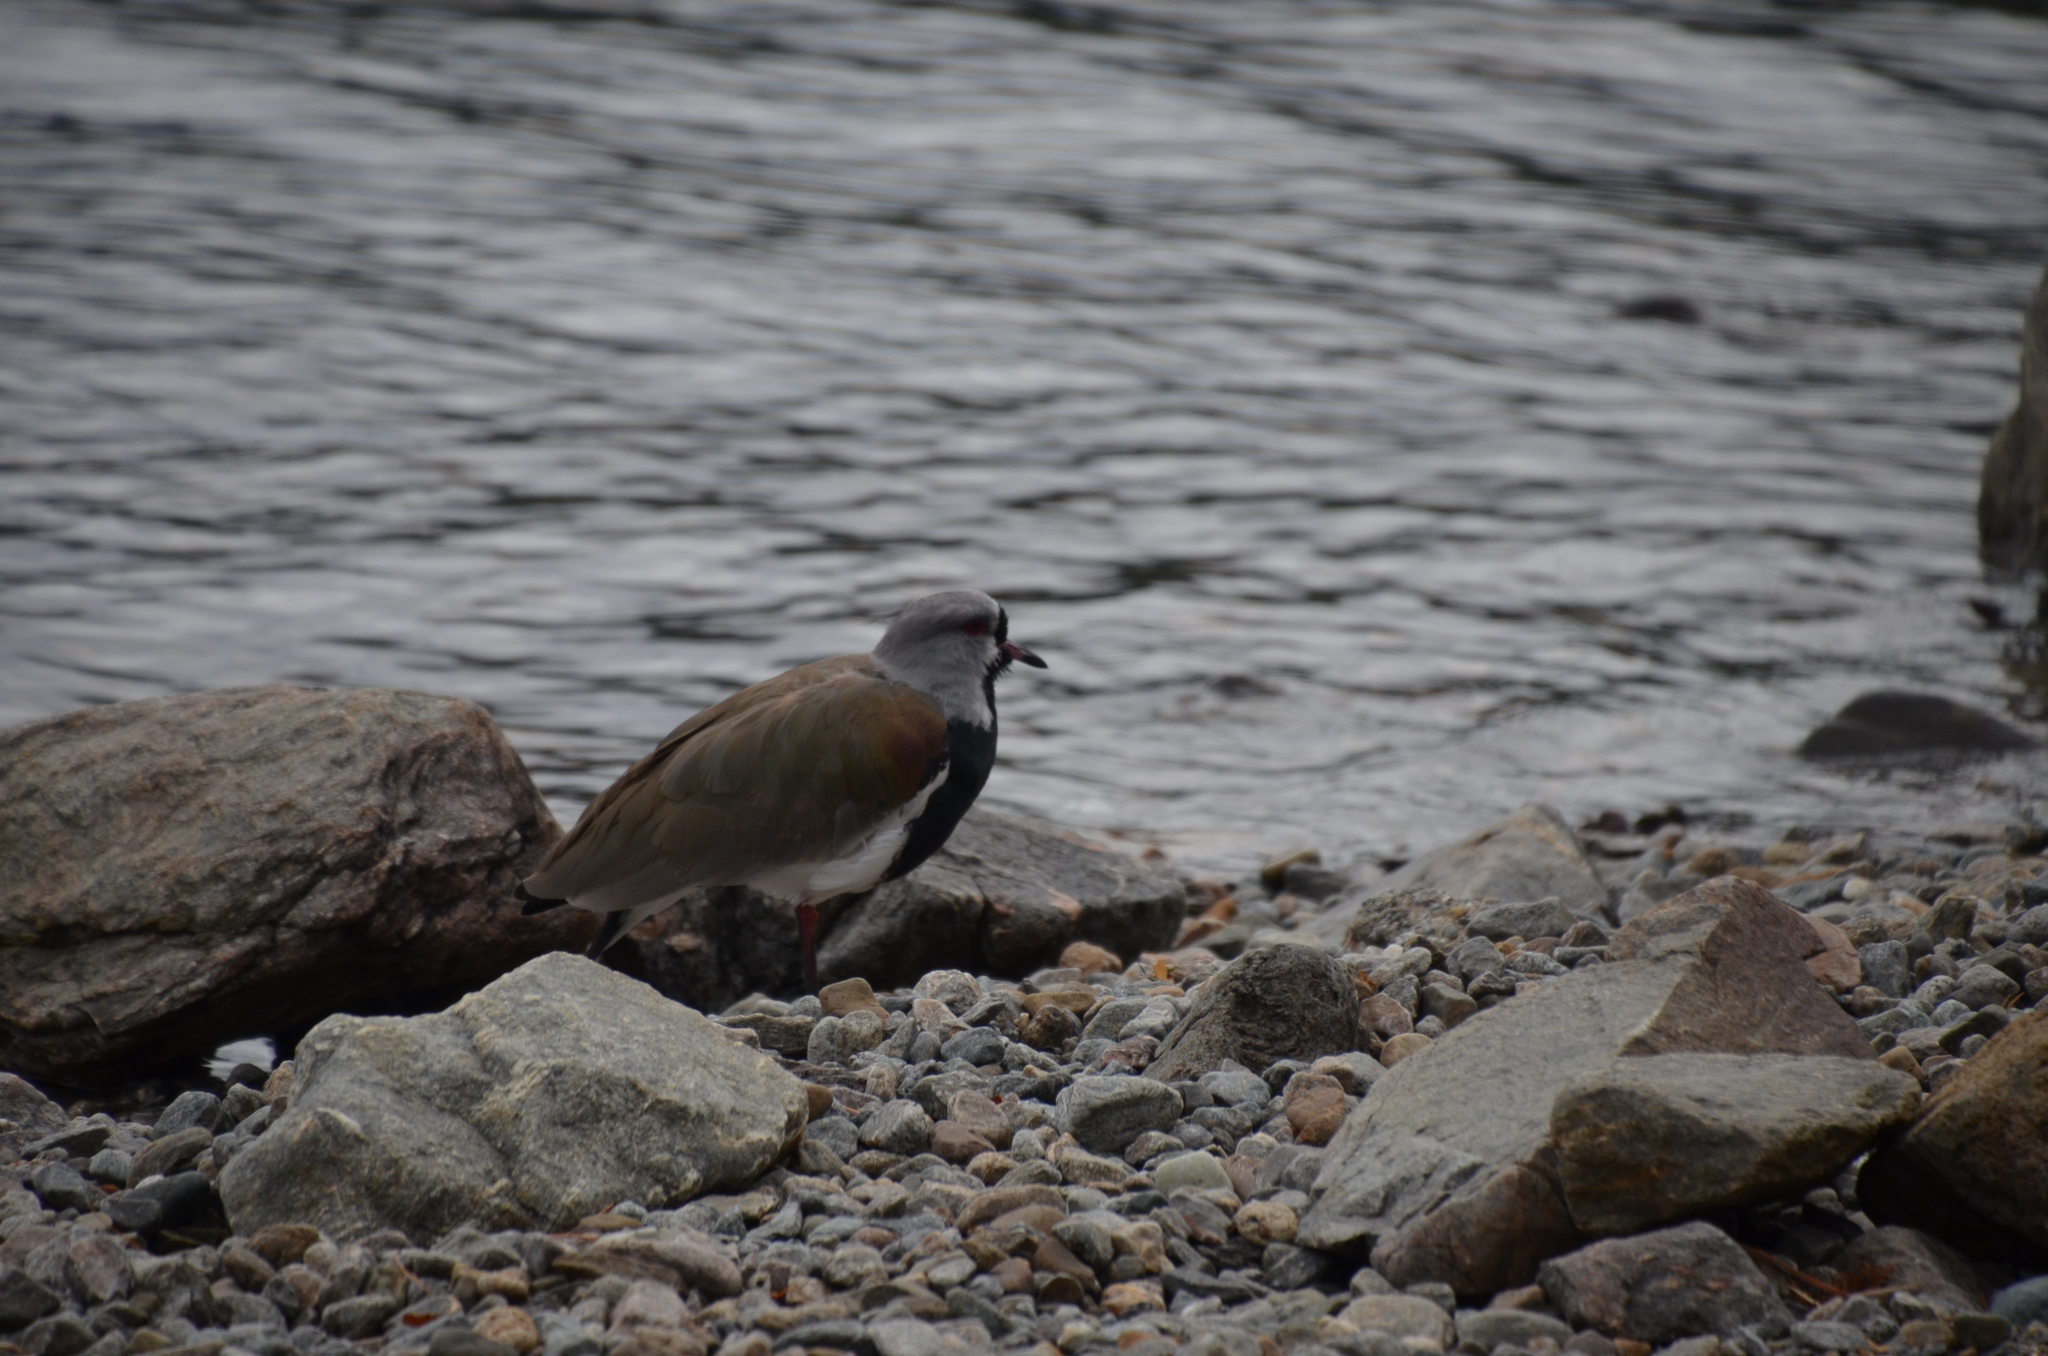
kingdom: Animalia
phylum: Chordata
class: Aves
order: Charadriiformes
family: Charadriidae
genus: Vanellus
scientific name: Vanellus chilensis
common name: Southern lapwing
